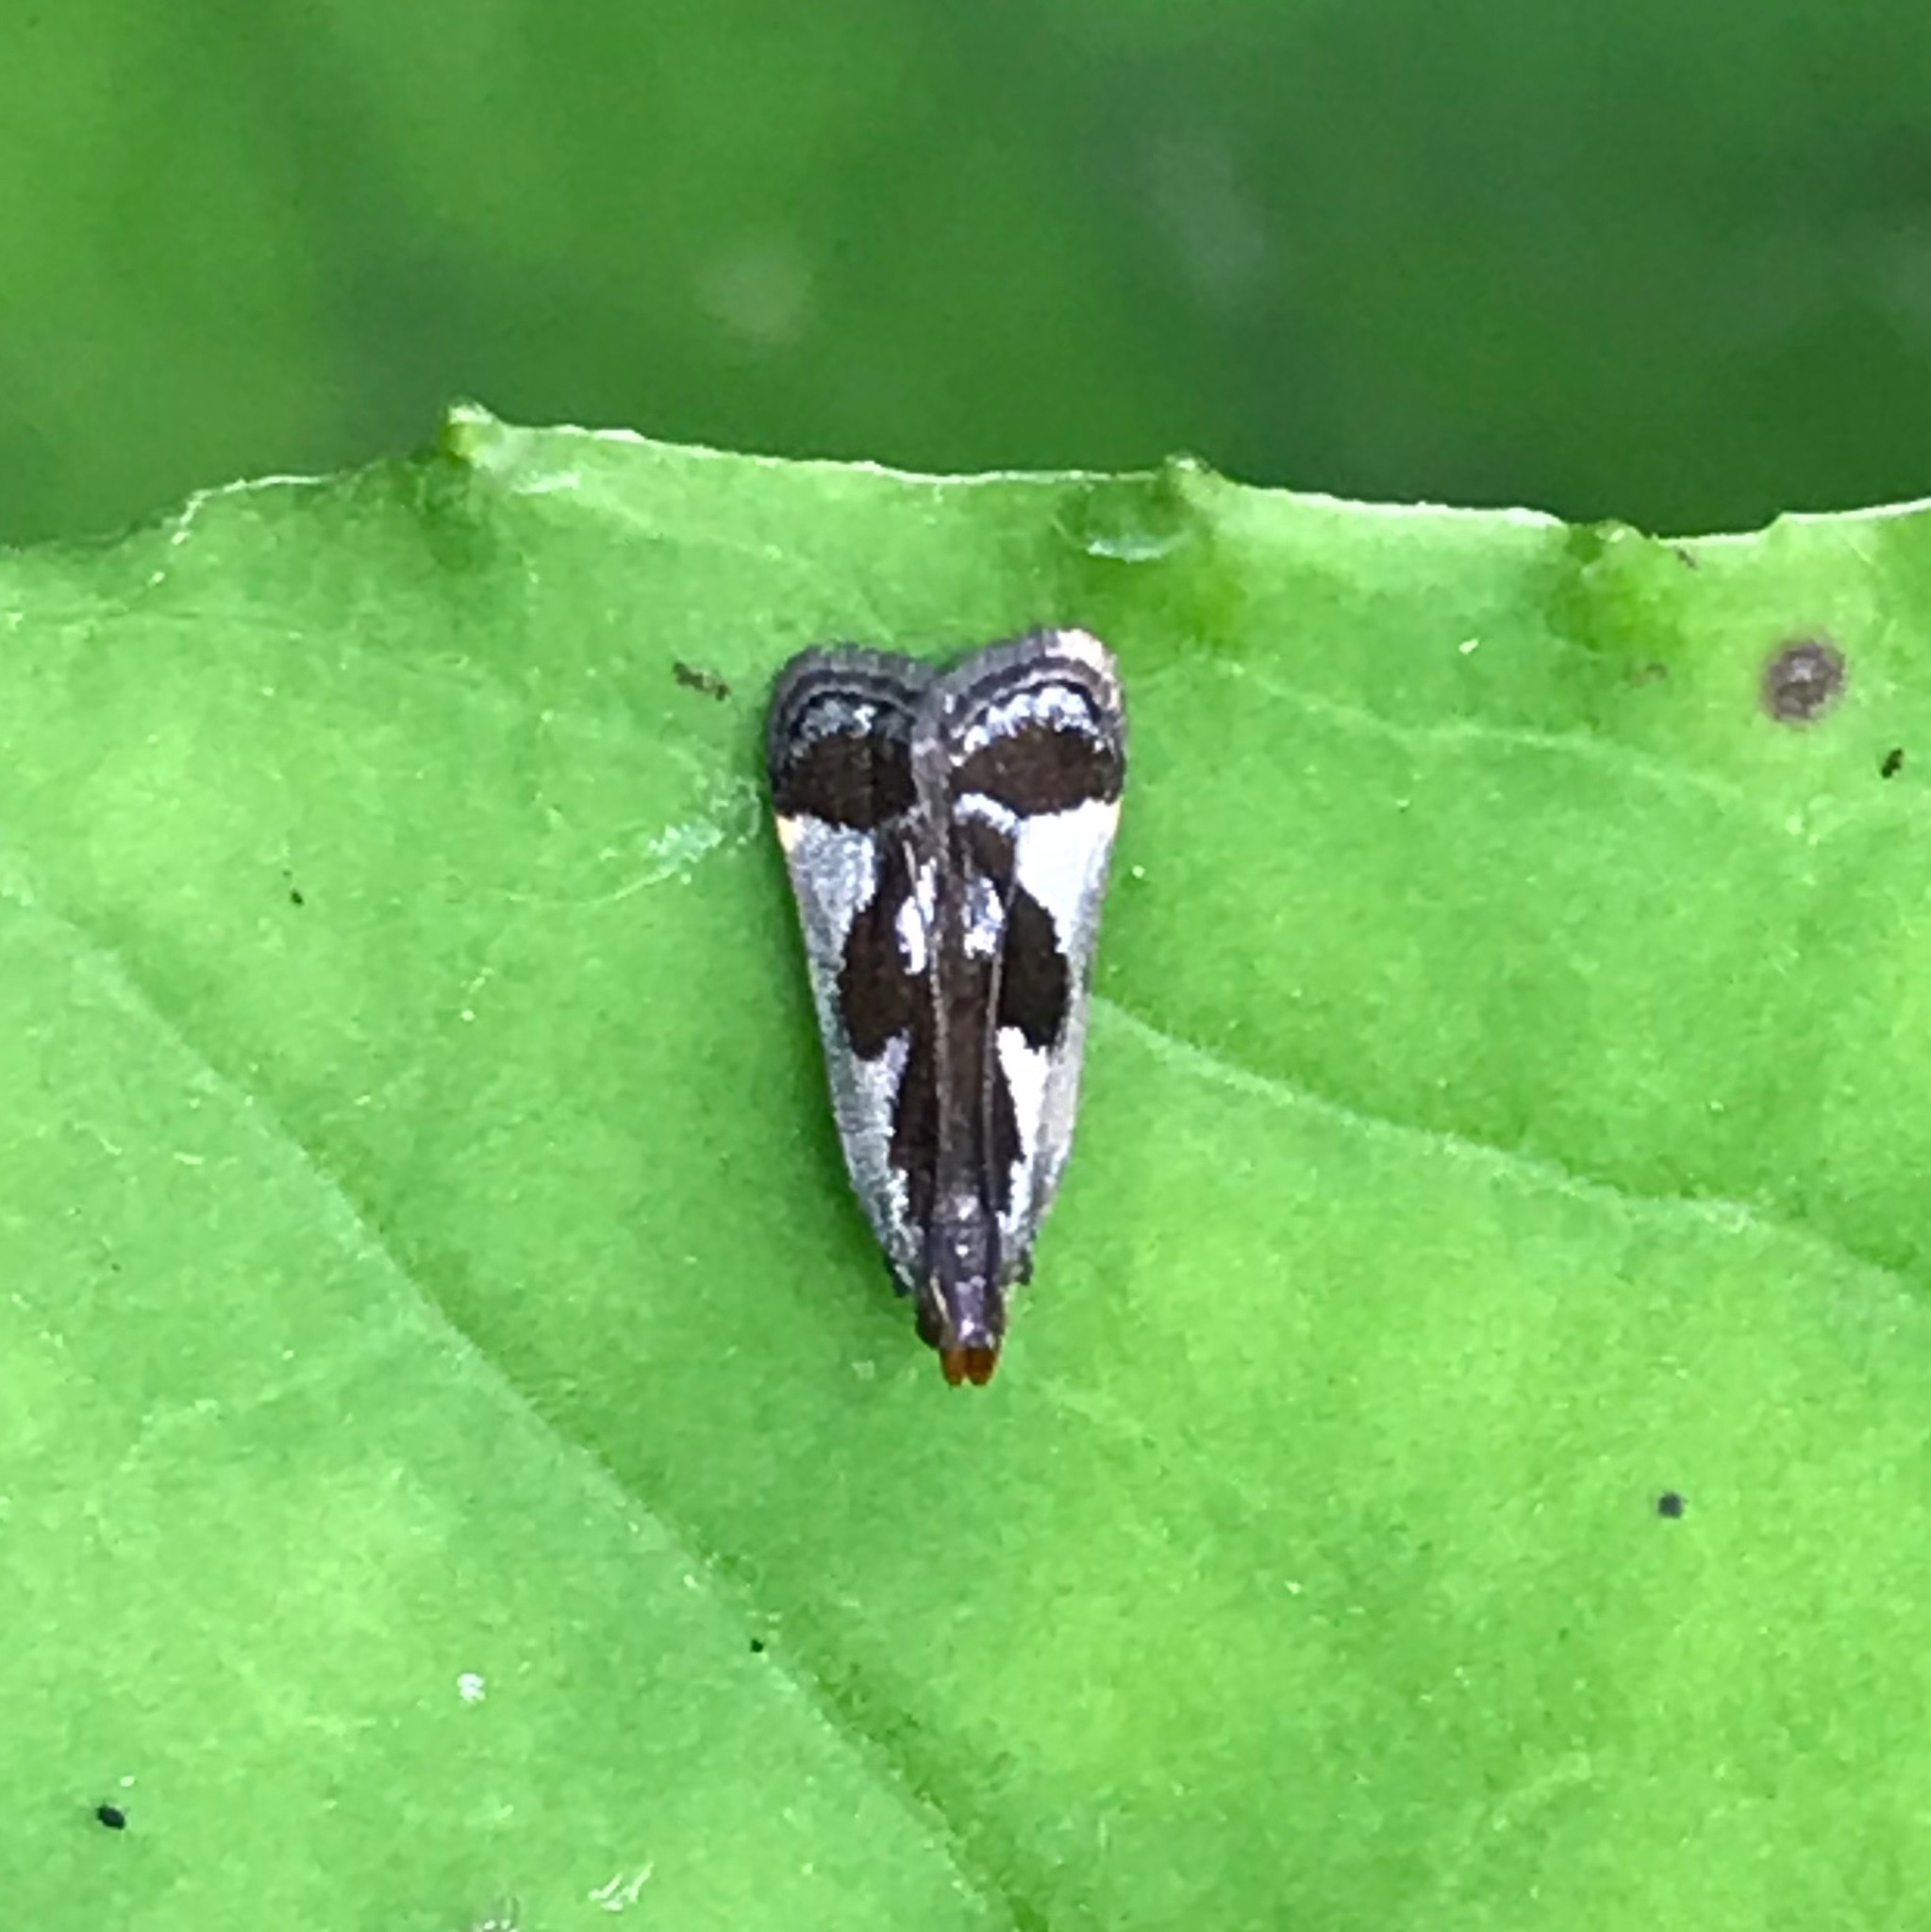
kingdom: Animalia
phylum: Arthropoda
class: Insecta
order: Lepidoptera
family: Gelechiidae
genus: Dichomeris
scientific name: Dichomeris ochripalpella
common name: Shining dichomeris moth
